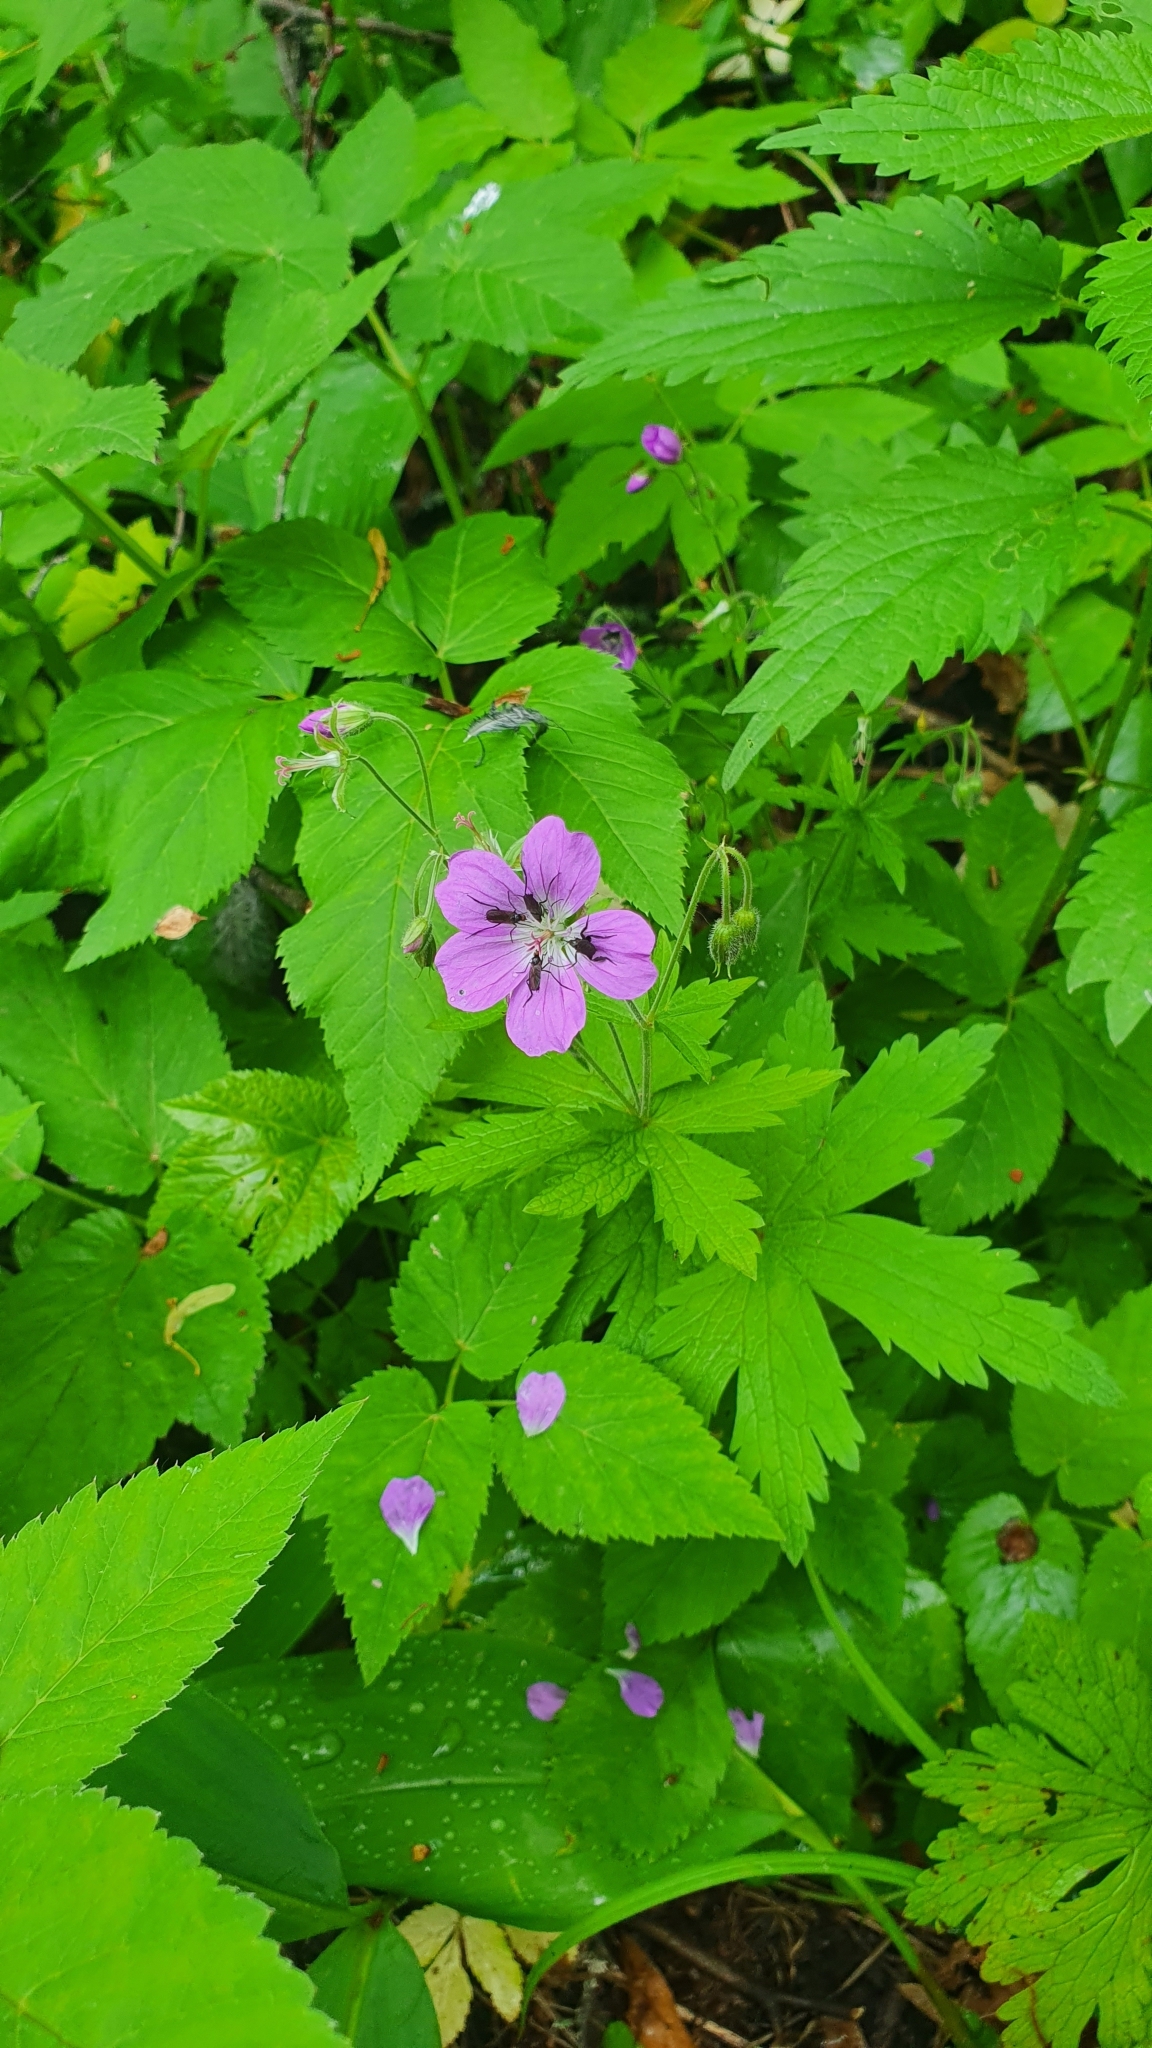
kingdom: Plantae
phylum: Tracheophyta
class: Magnoliopsida
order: Geraniales
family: Geraniaceae
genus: Geranium
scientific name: Geranium sylvaticum
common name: Wood crane's-bill
